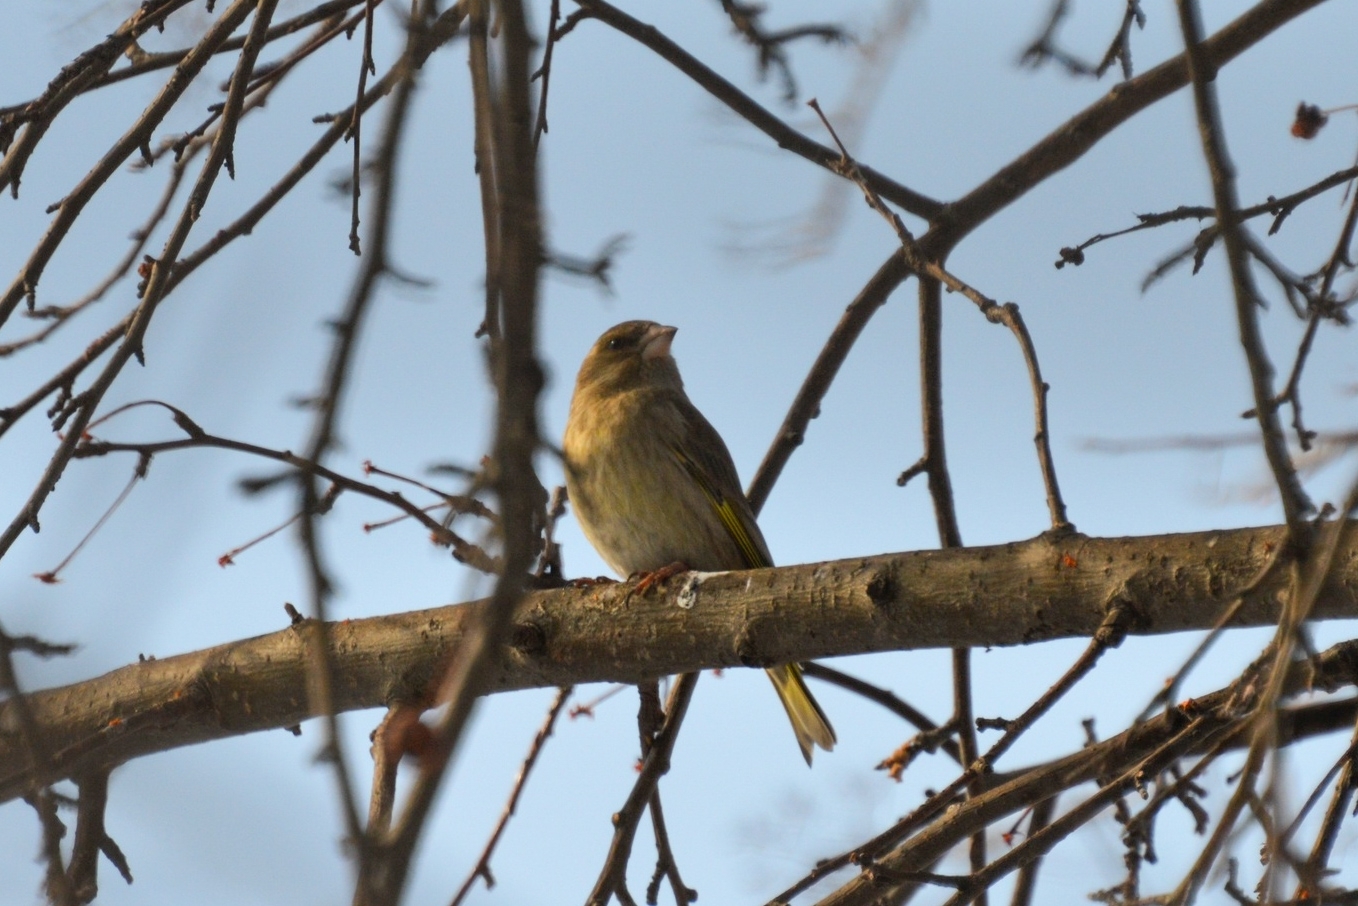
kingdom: Plantae
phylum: Tracheophyta
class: Liliopsida
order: Poales
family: Poaceae
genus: Chloris
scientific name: Chloris chloris
